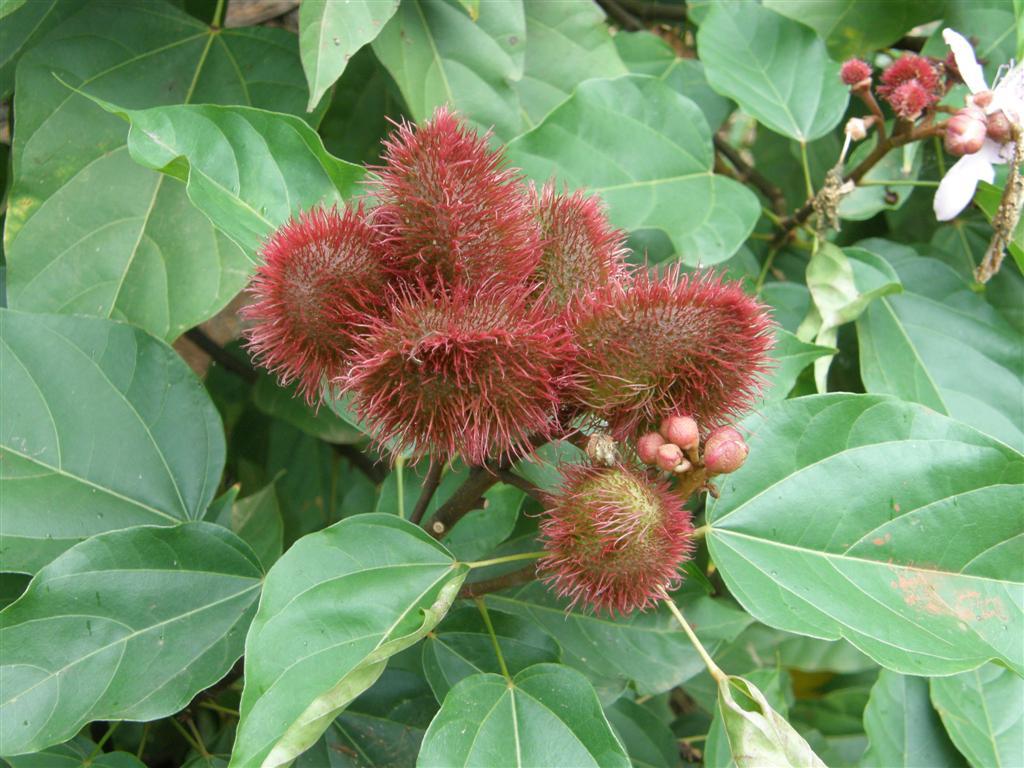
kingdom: Plantae
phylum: Tracheophyta
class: Magnoliopsida
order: Malvales
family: Bixaceae
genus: Bixa
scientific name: Bixa orellana
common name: Lipsticktree
